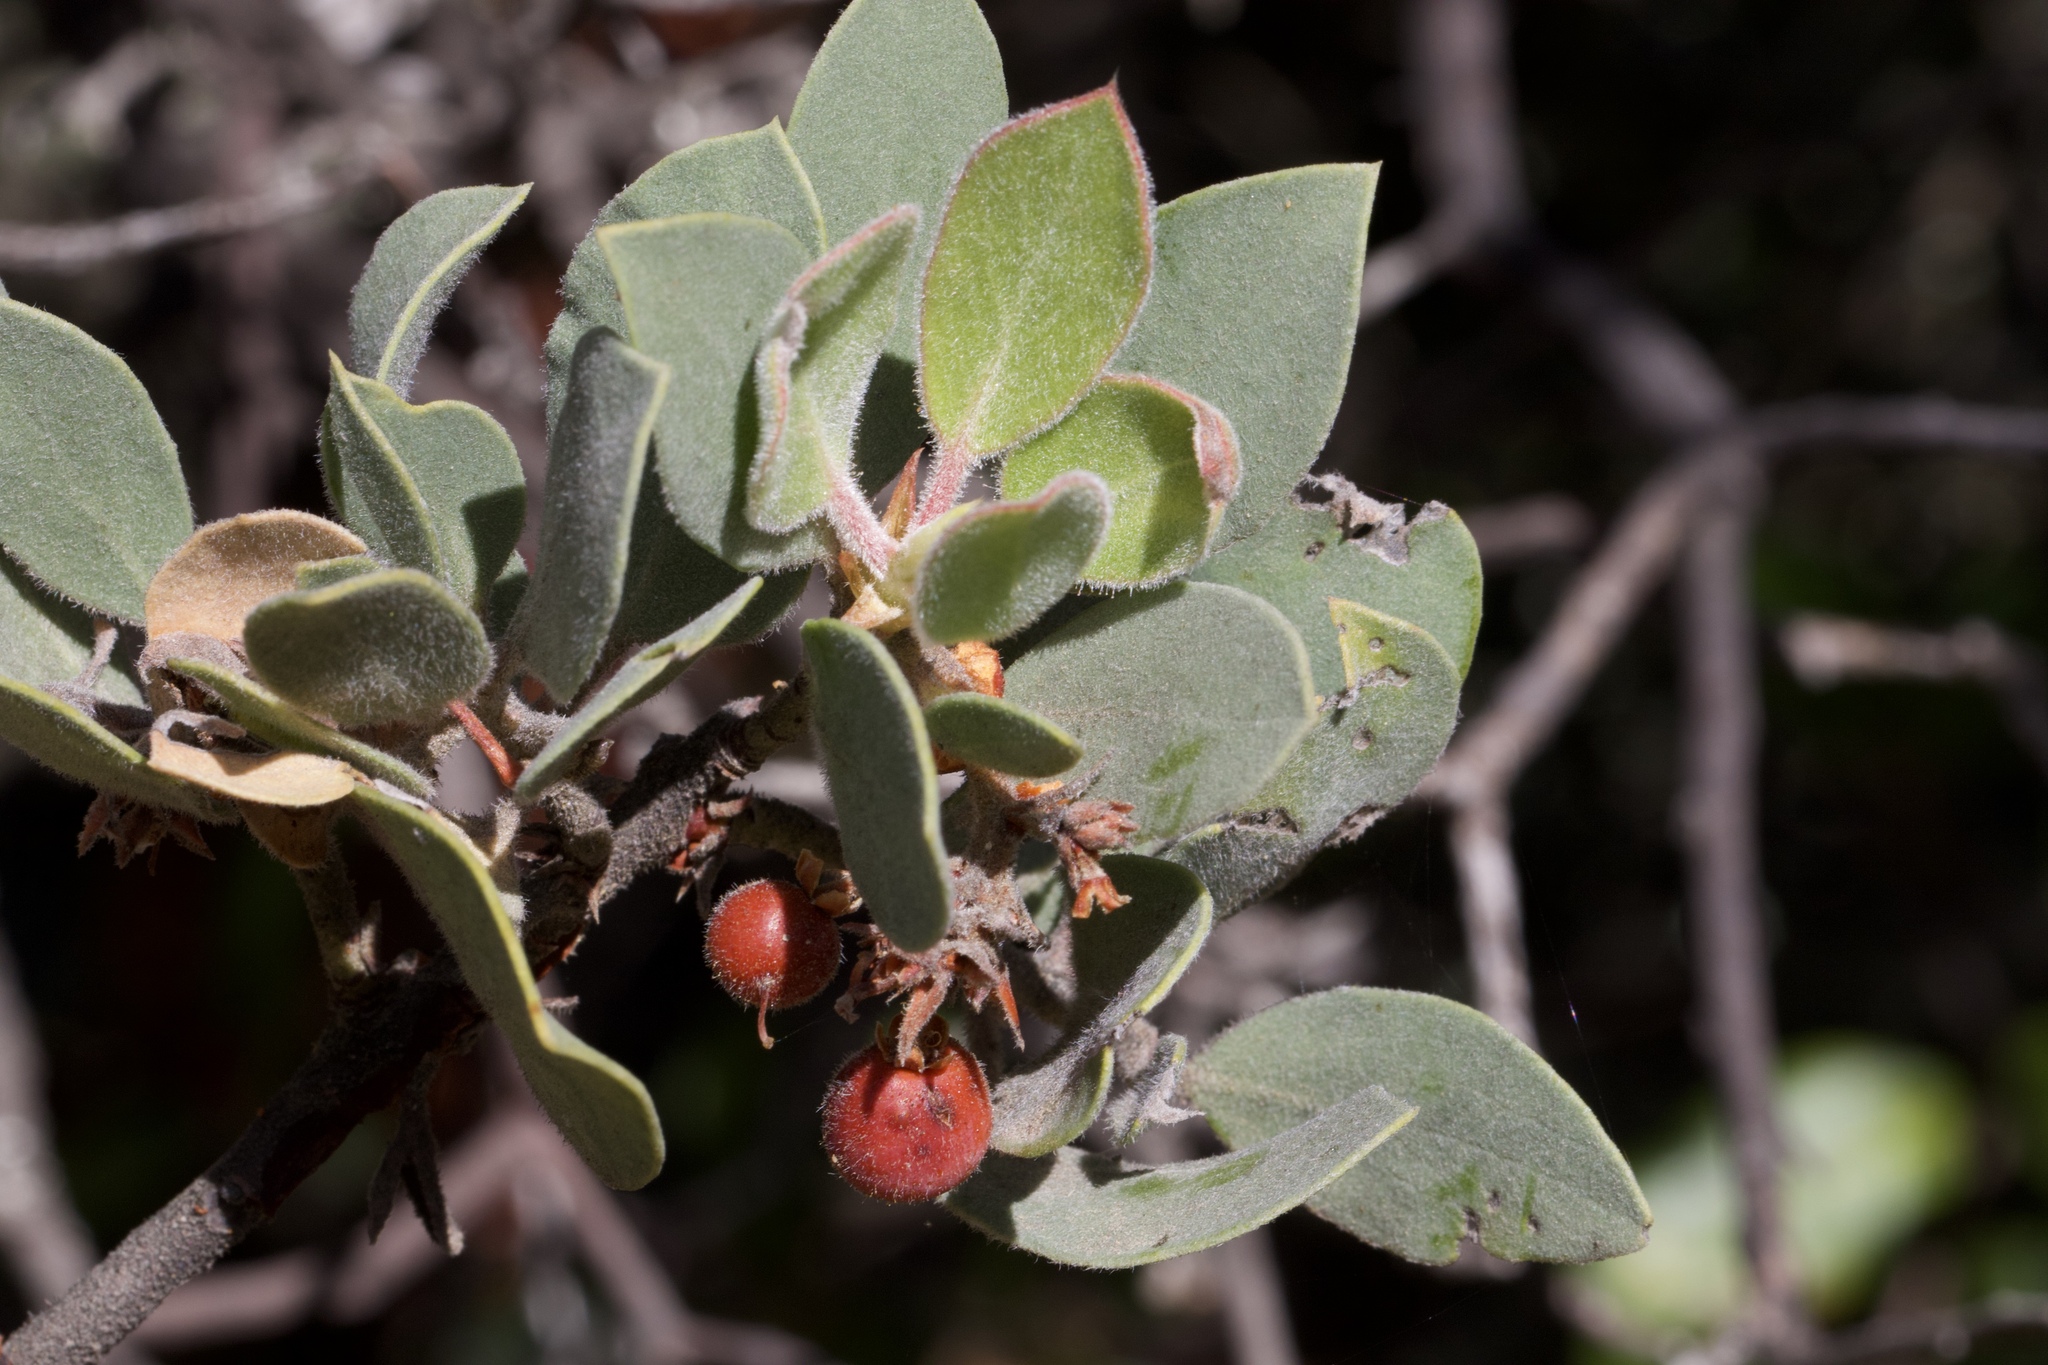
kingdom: Plantae
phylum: Tracheophyta
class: Magnoliopsida
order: Ericales
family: Ericaceae
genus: Arctostaphylos
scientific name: Arctostaphylos glandulosa
